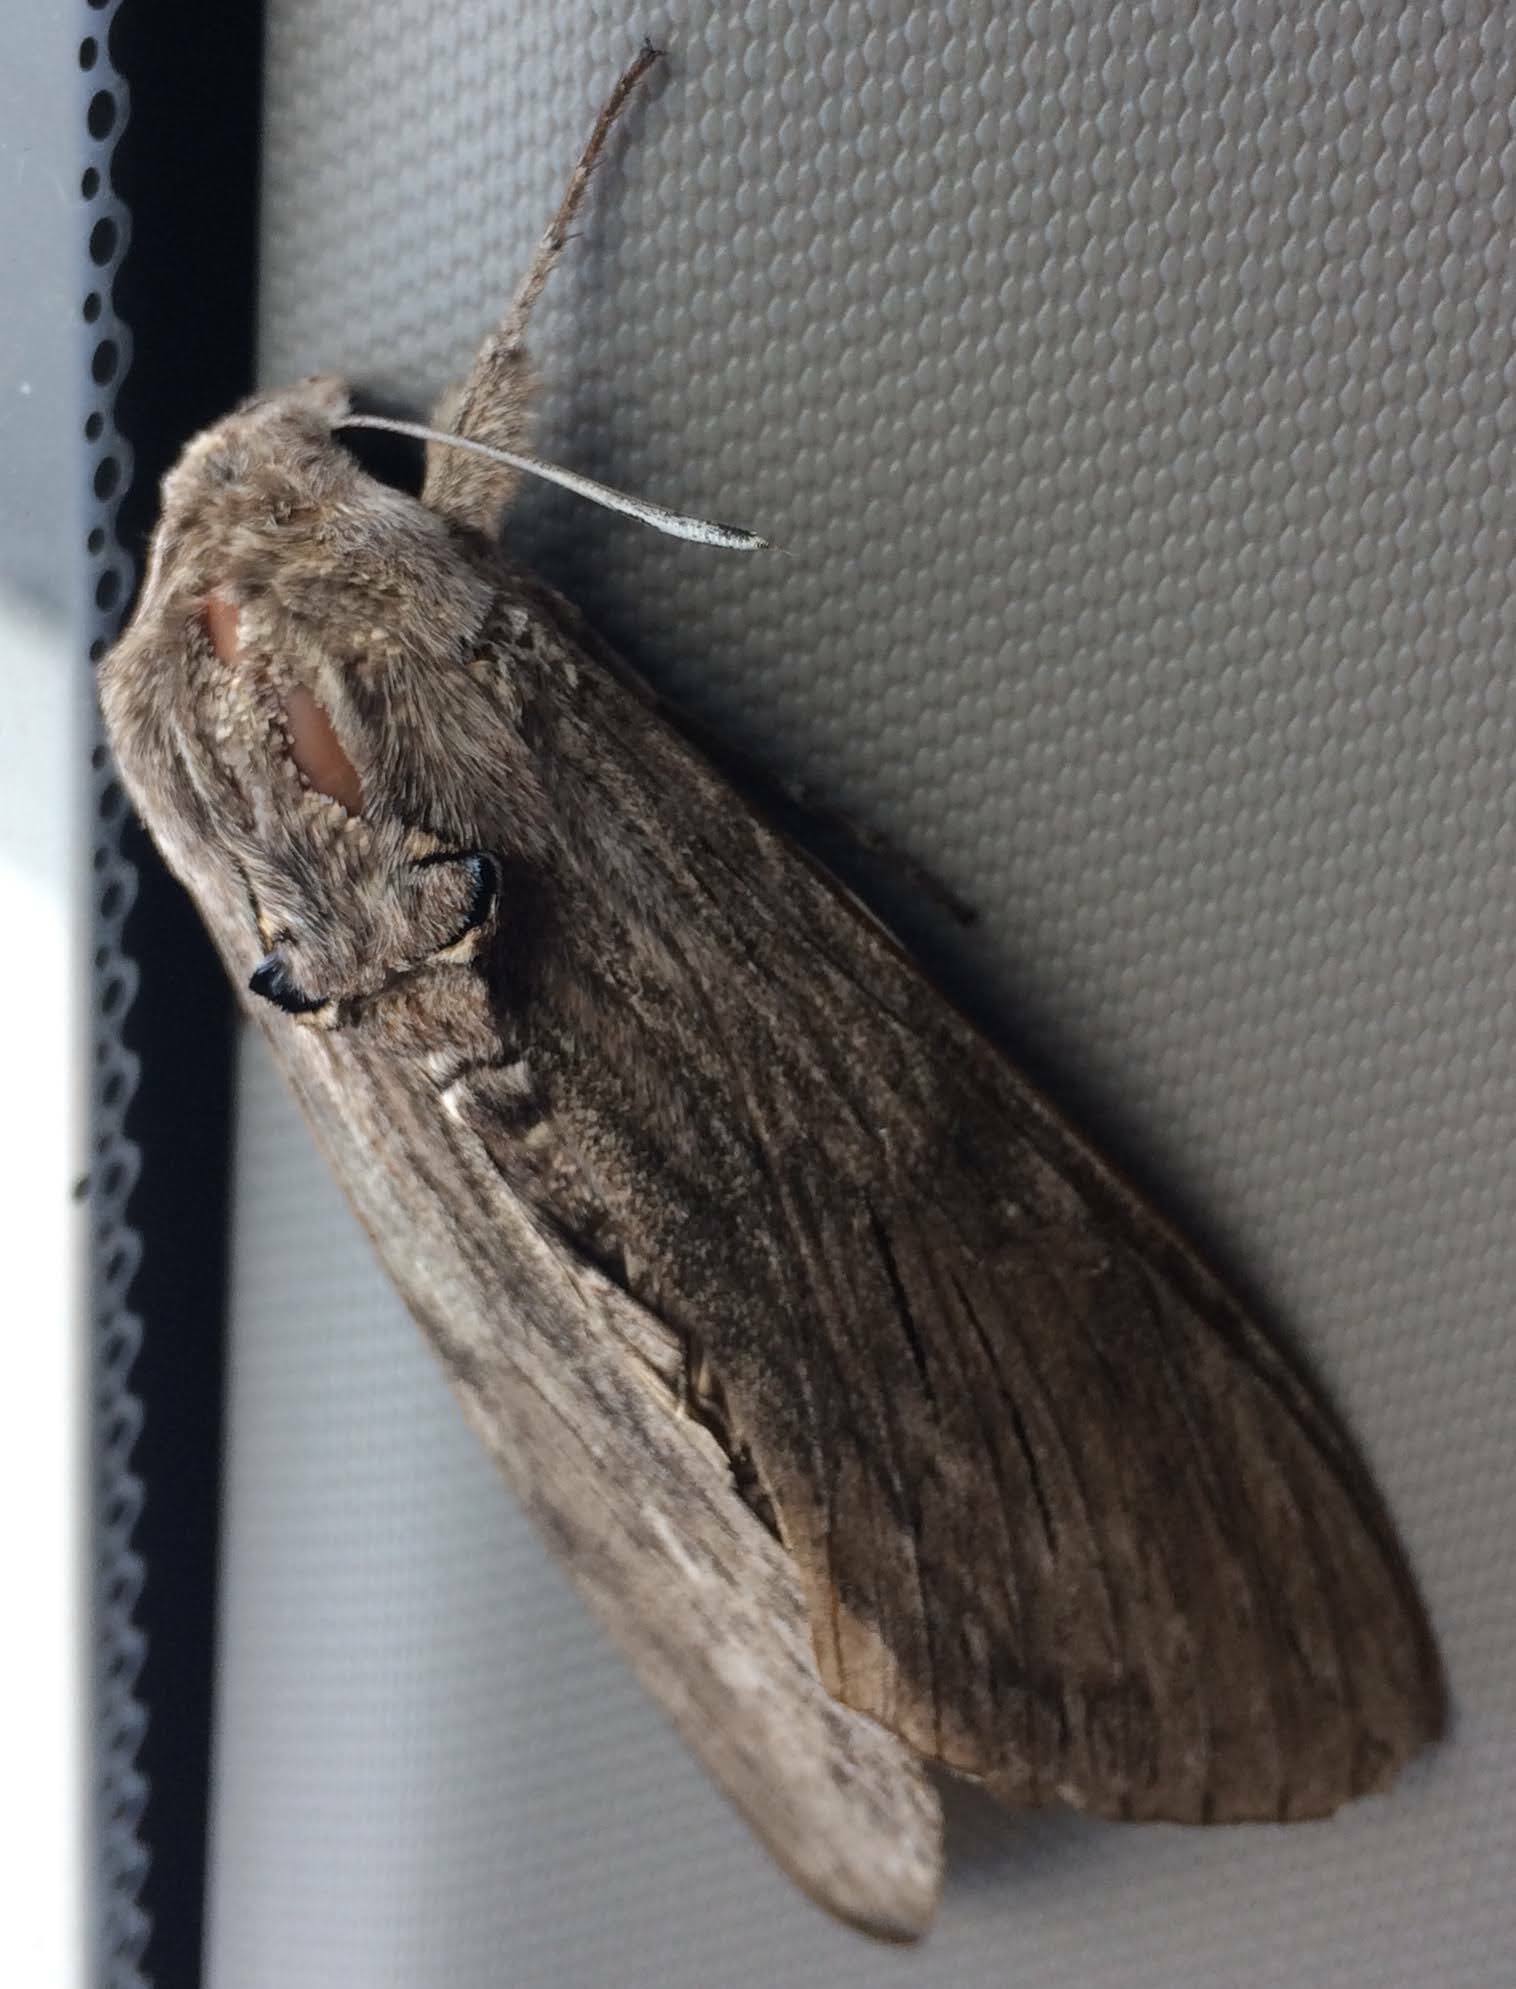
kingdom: Animalia
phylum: Arthropoda
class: Insecta
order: Lepidoptera
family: Sphingidae
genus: Agrius
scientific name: Agrius convolvuli
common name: Convolvulus hawkmoth
